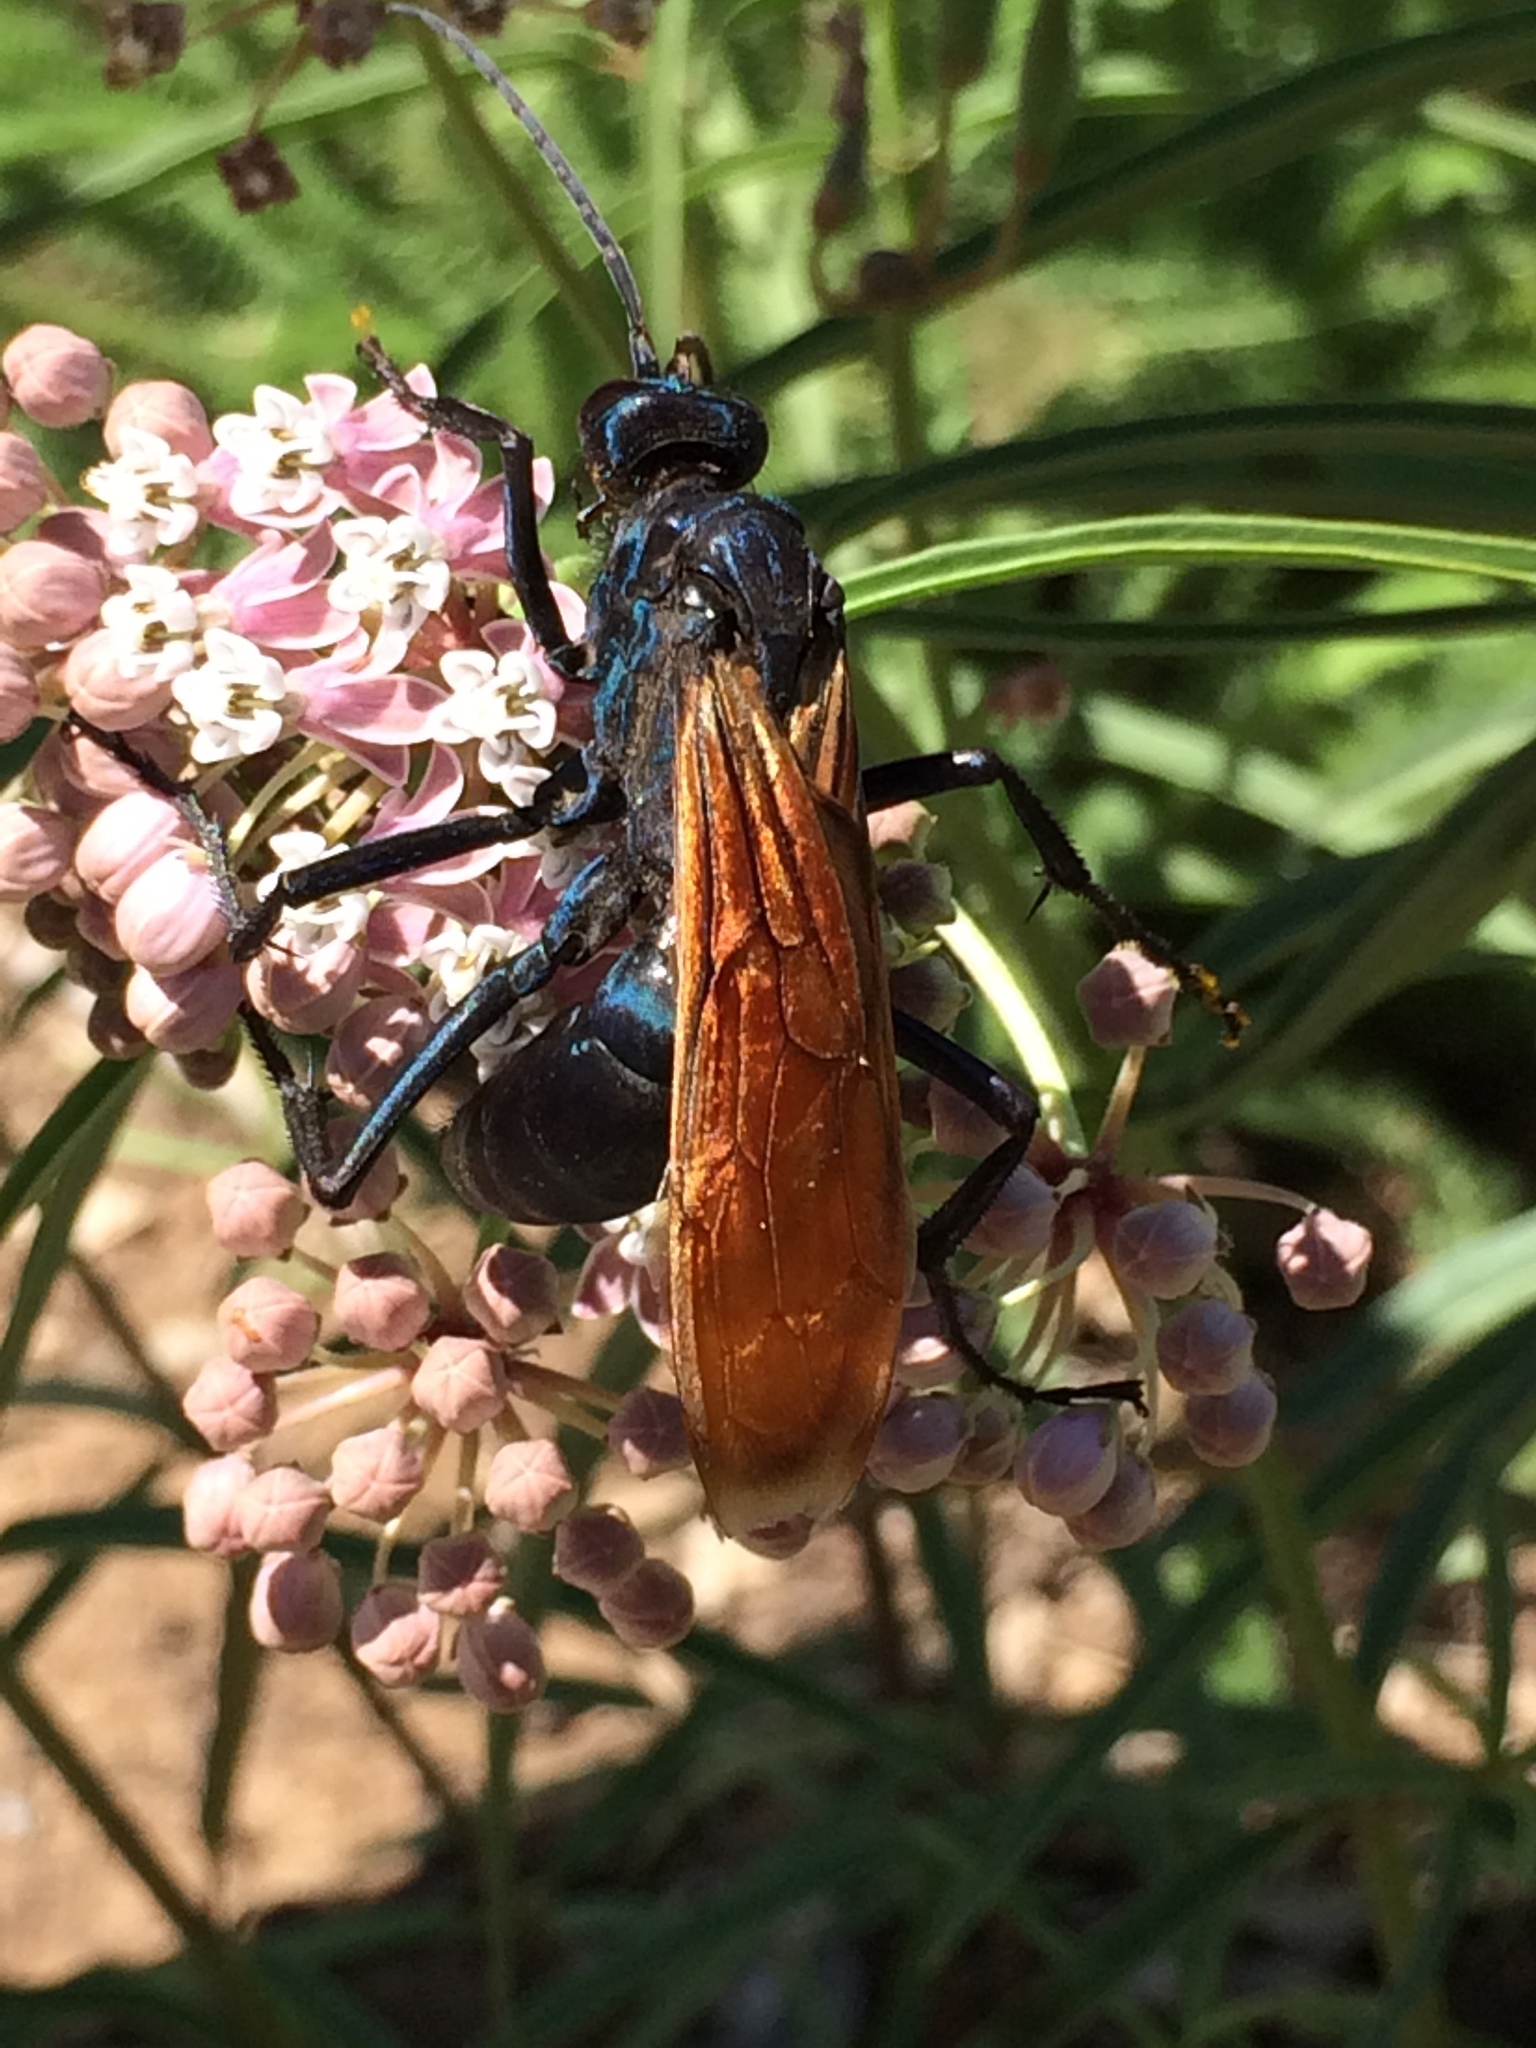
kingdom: Animalia
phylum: Arthropoda
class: Insecta
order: Hymenoptera
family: Pompilidae
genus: Pepsis
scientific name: Pepsis thisbe
